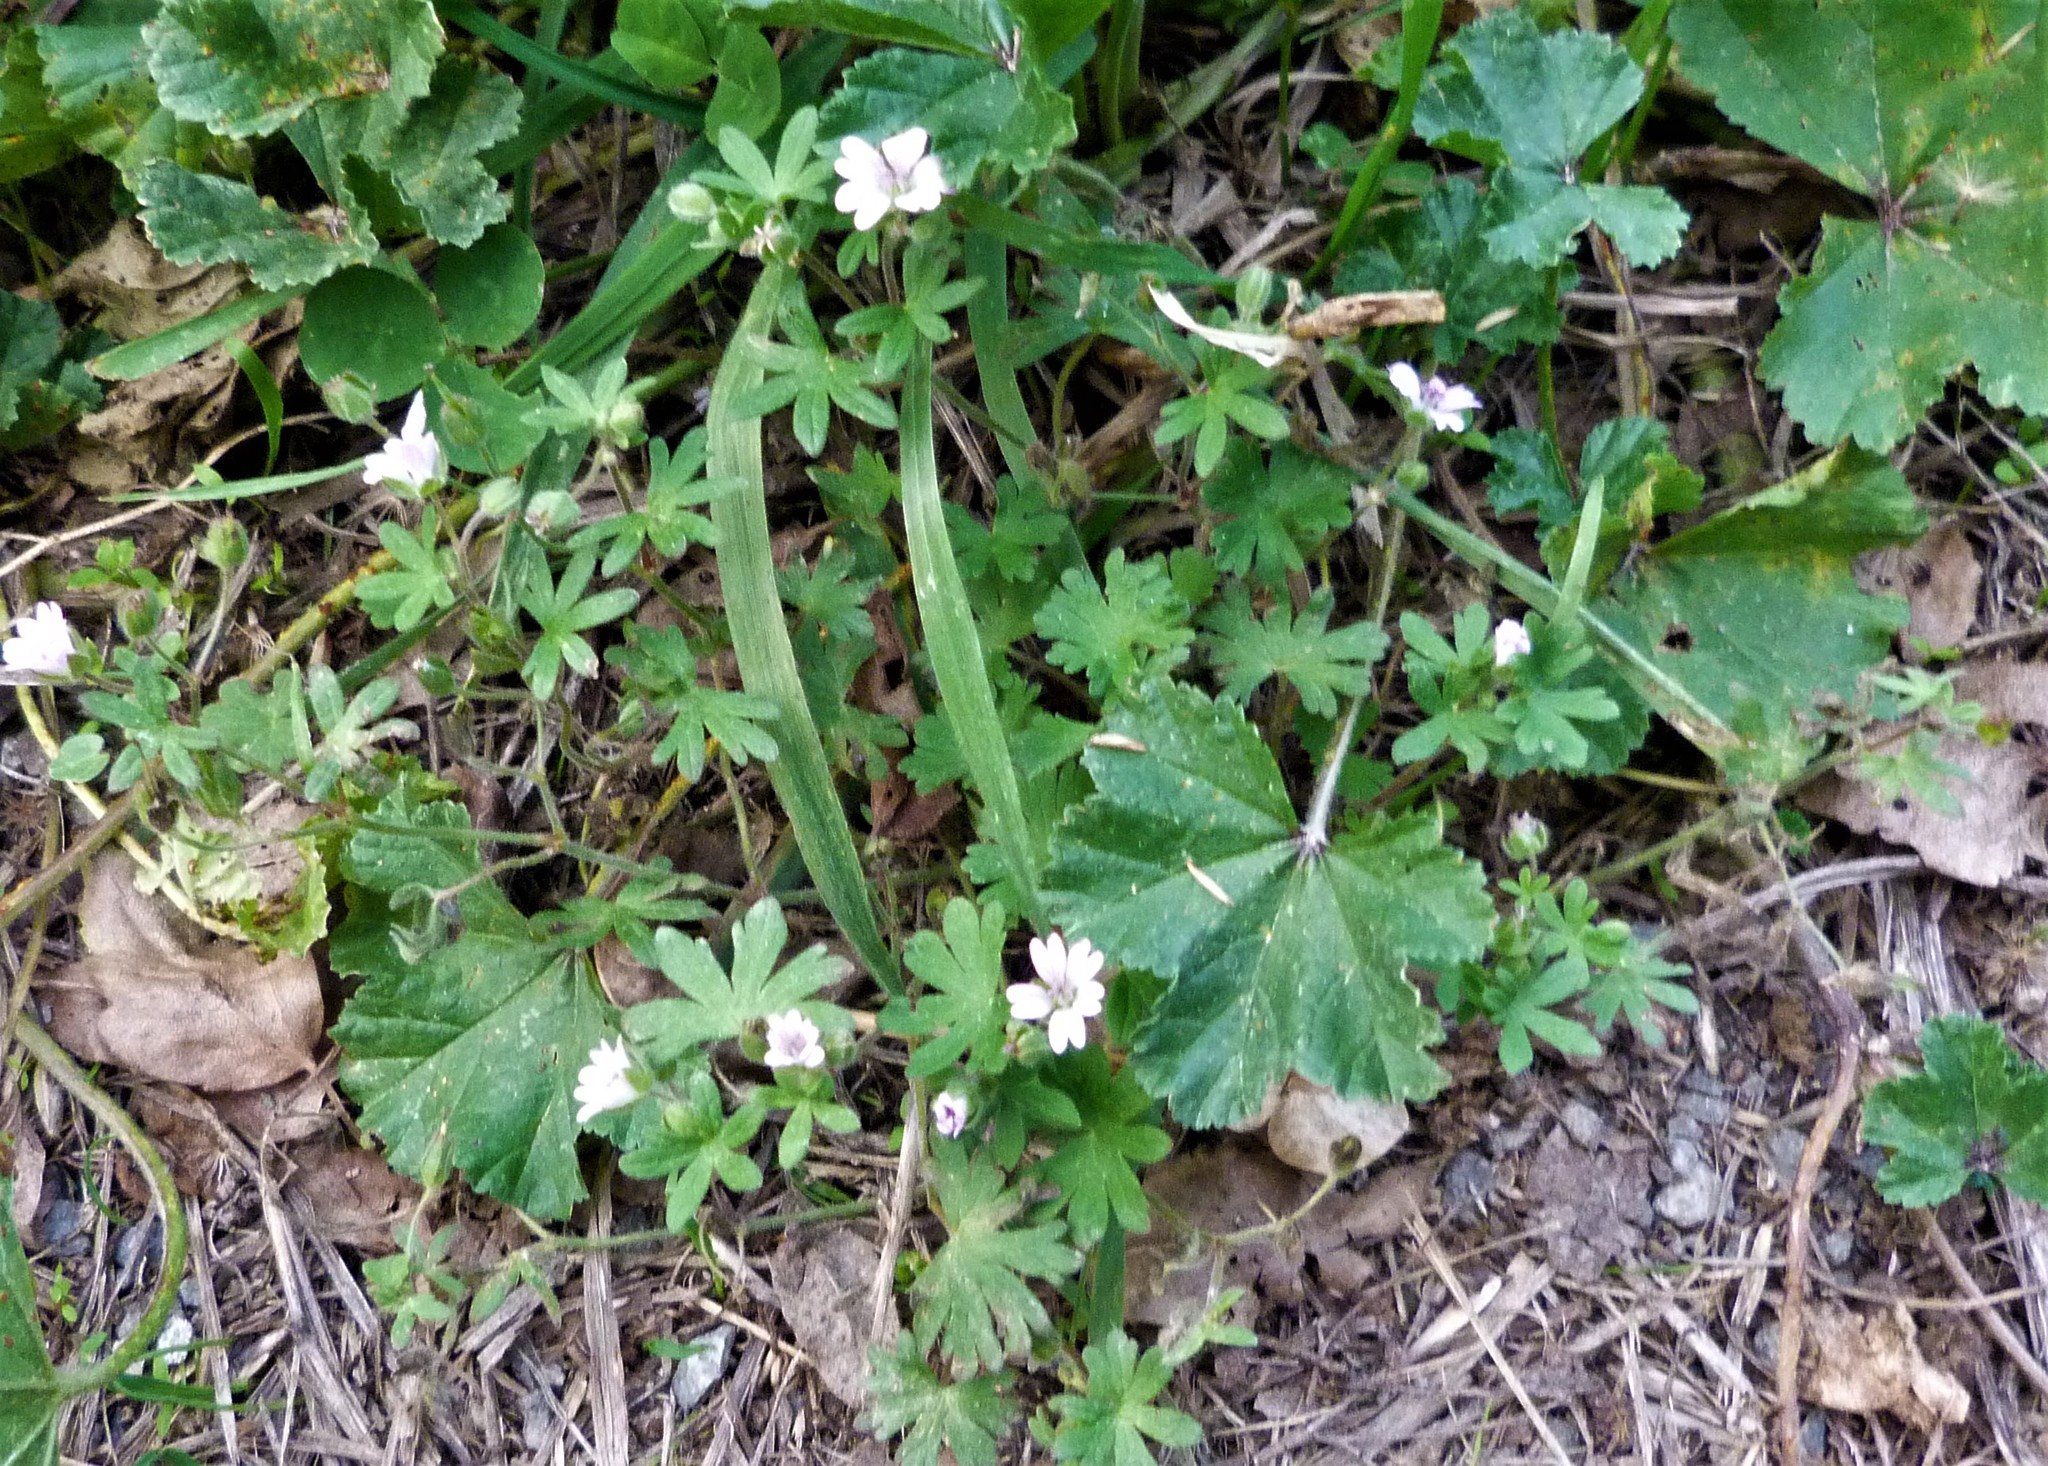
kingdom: Plantae
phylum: Tracheophyta
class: Magnoliopsida
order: Geraniales
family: Geraniaceae
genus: Geranium
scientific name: Geranium molle
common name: Dove's-foot crane's-bill
